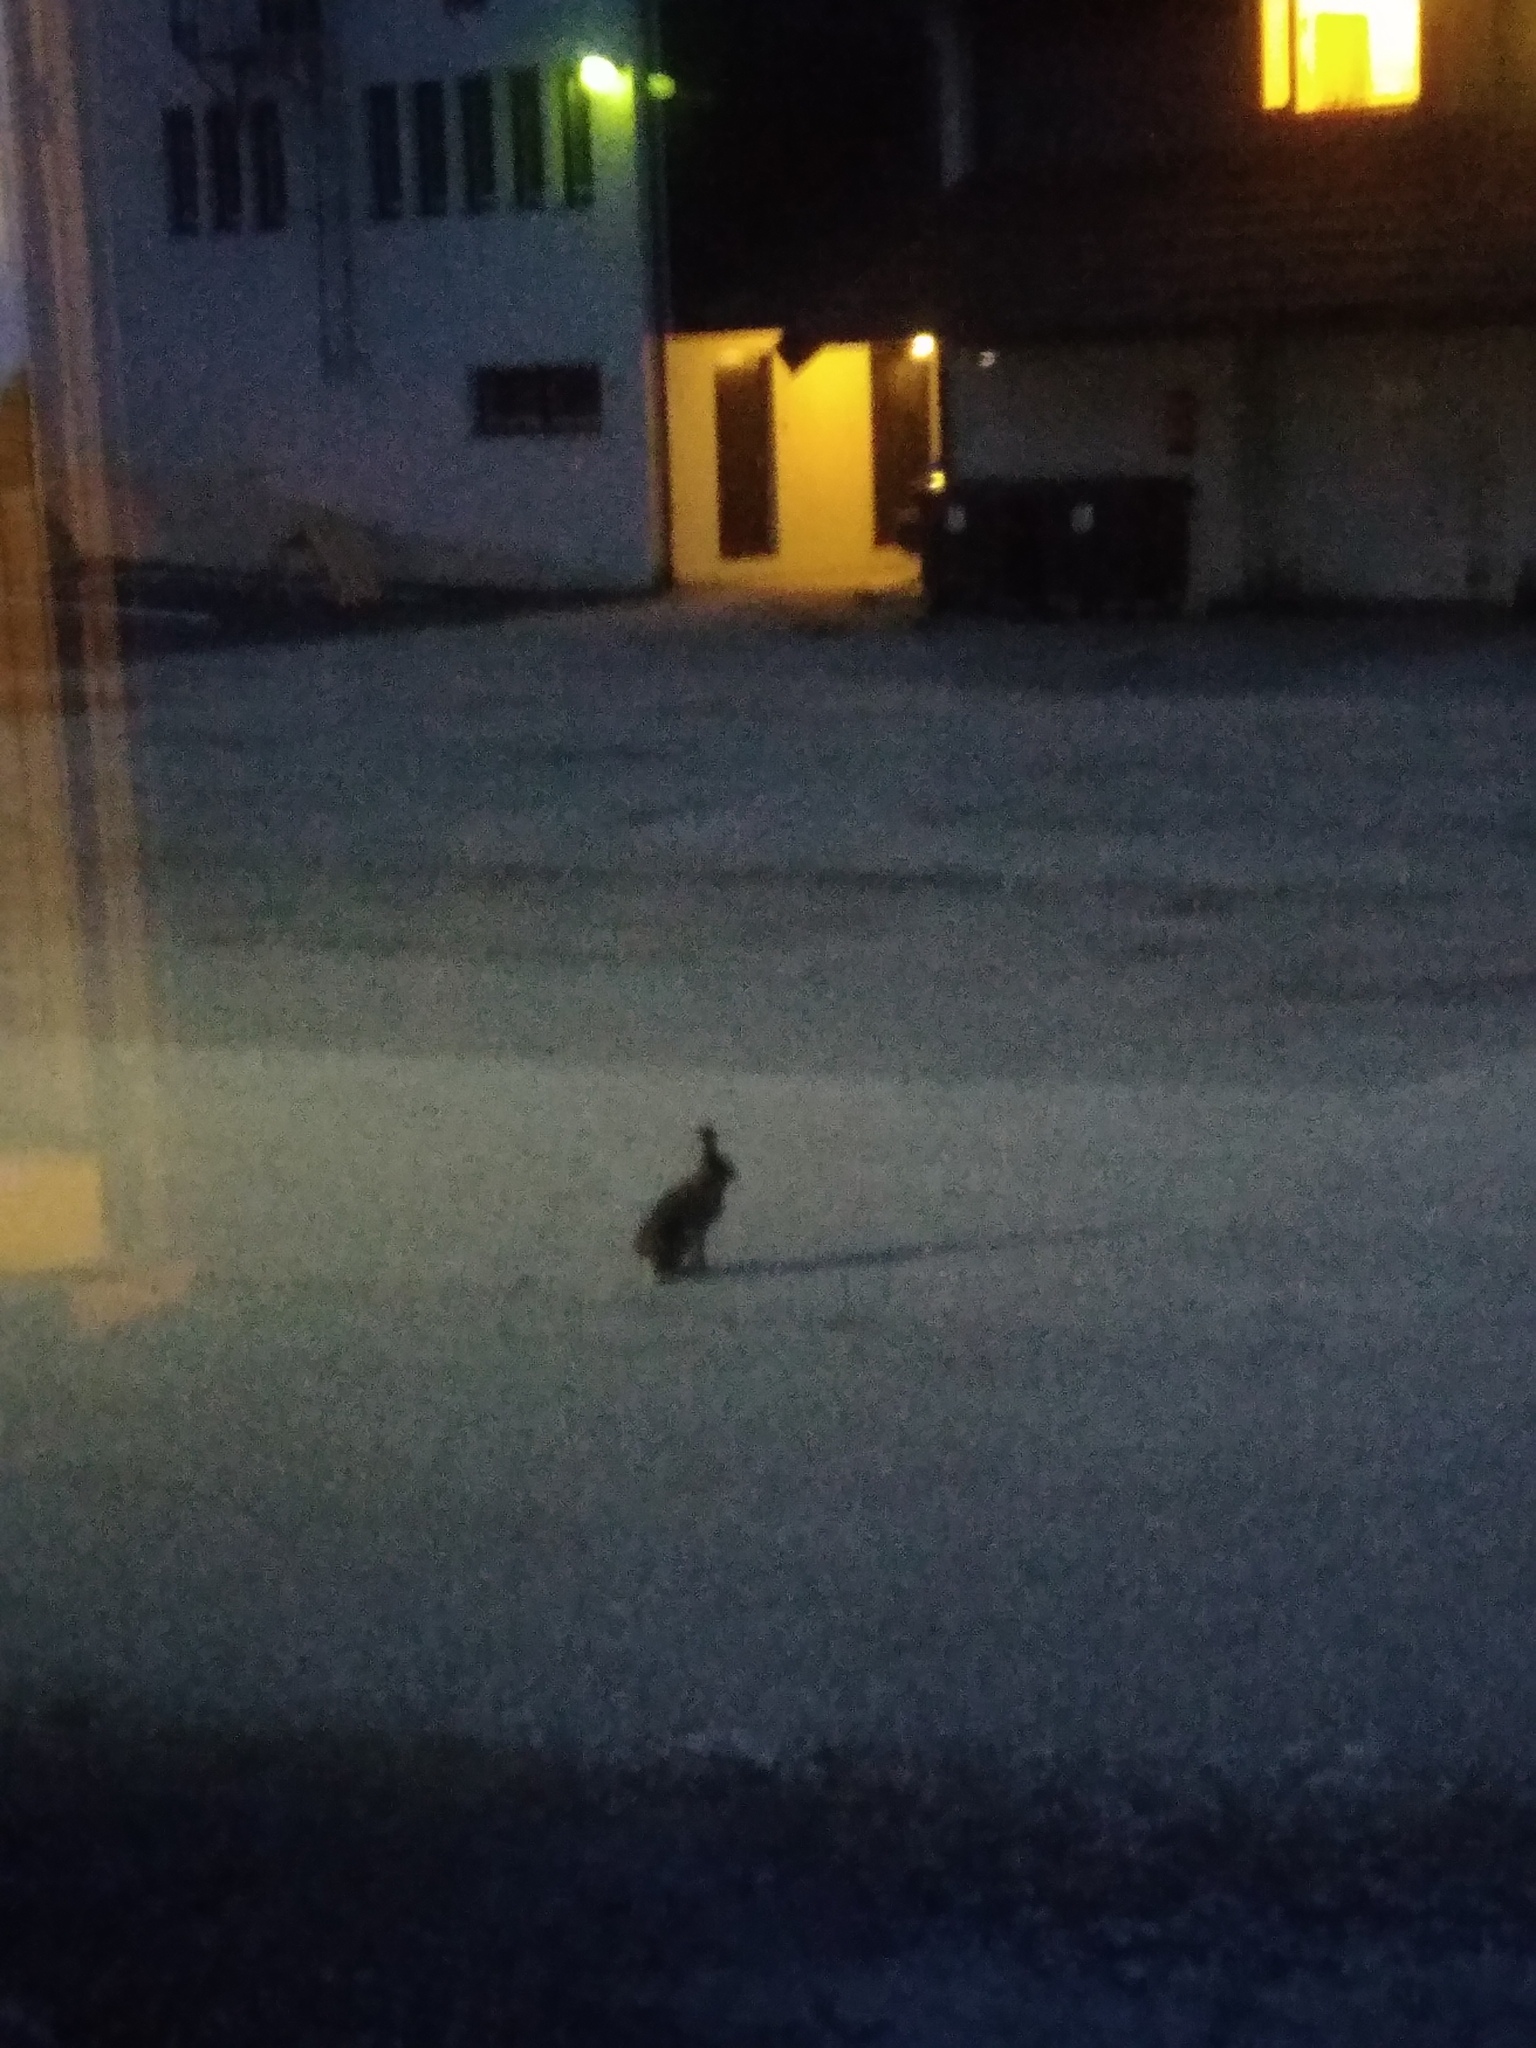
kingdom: Animalia
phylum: Chordata
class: Mammalia
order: Lagomorpha
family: Leporidae
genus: Lepus
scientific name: Lepus timidus
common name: Mountain hare
